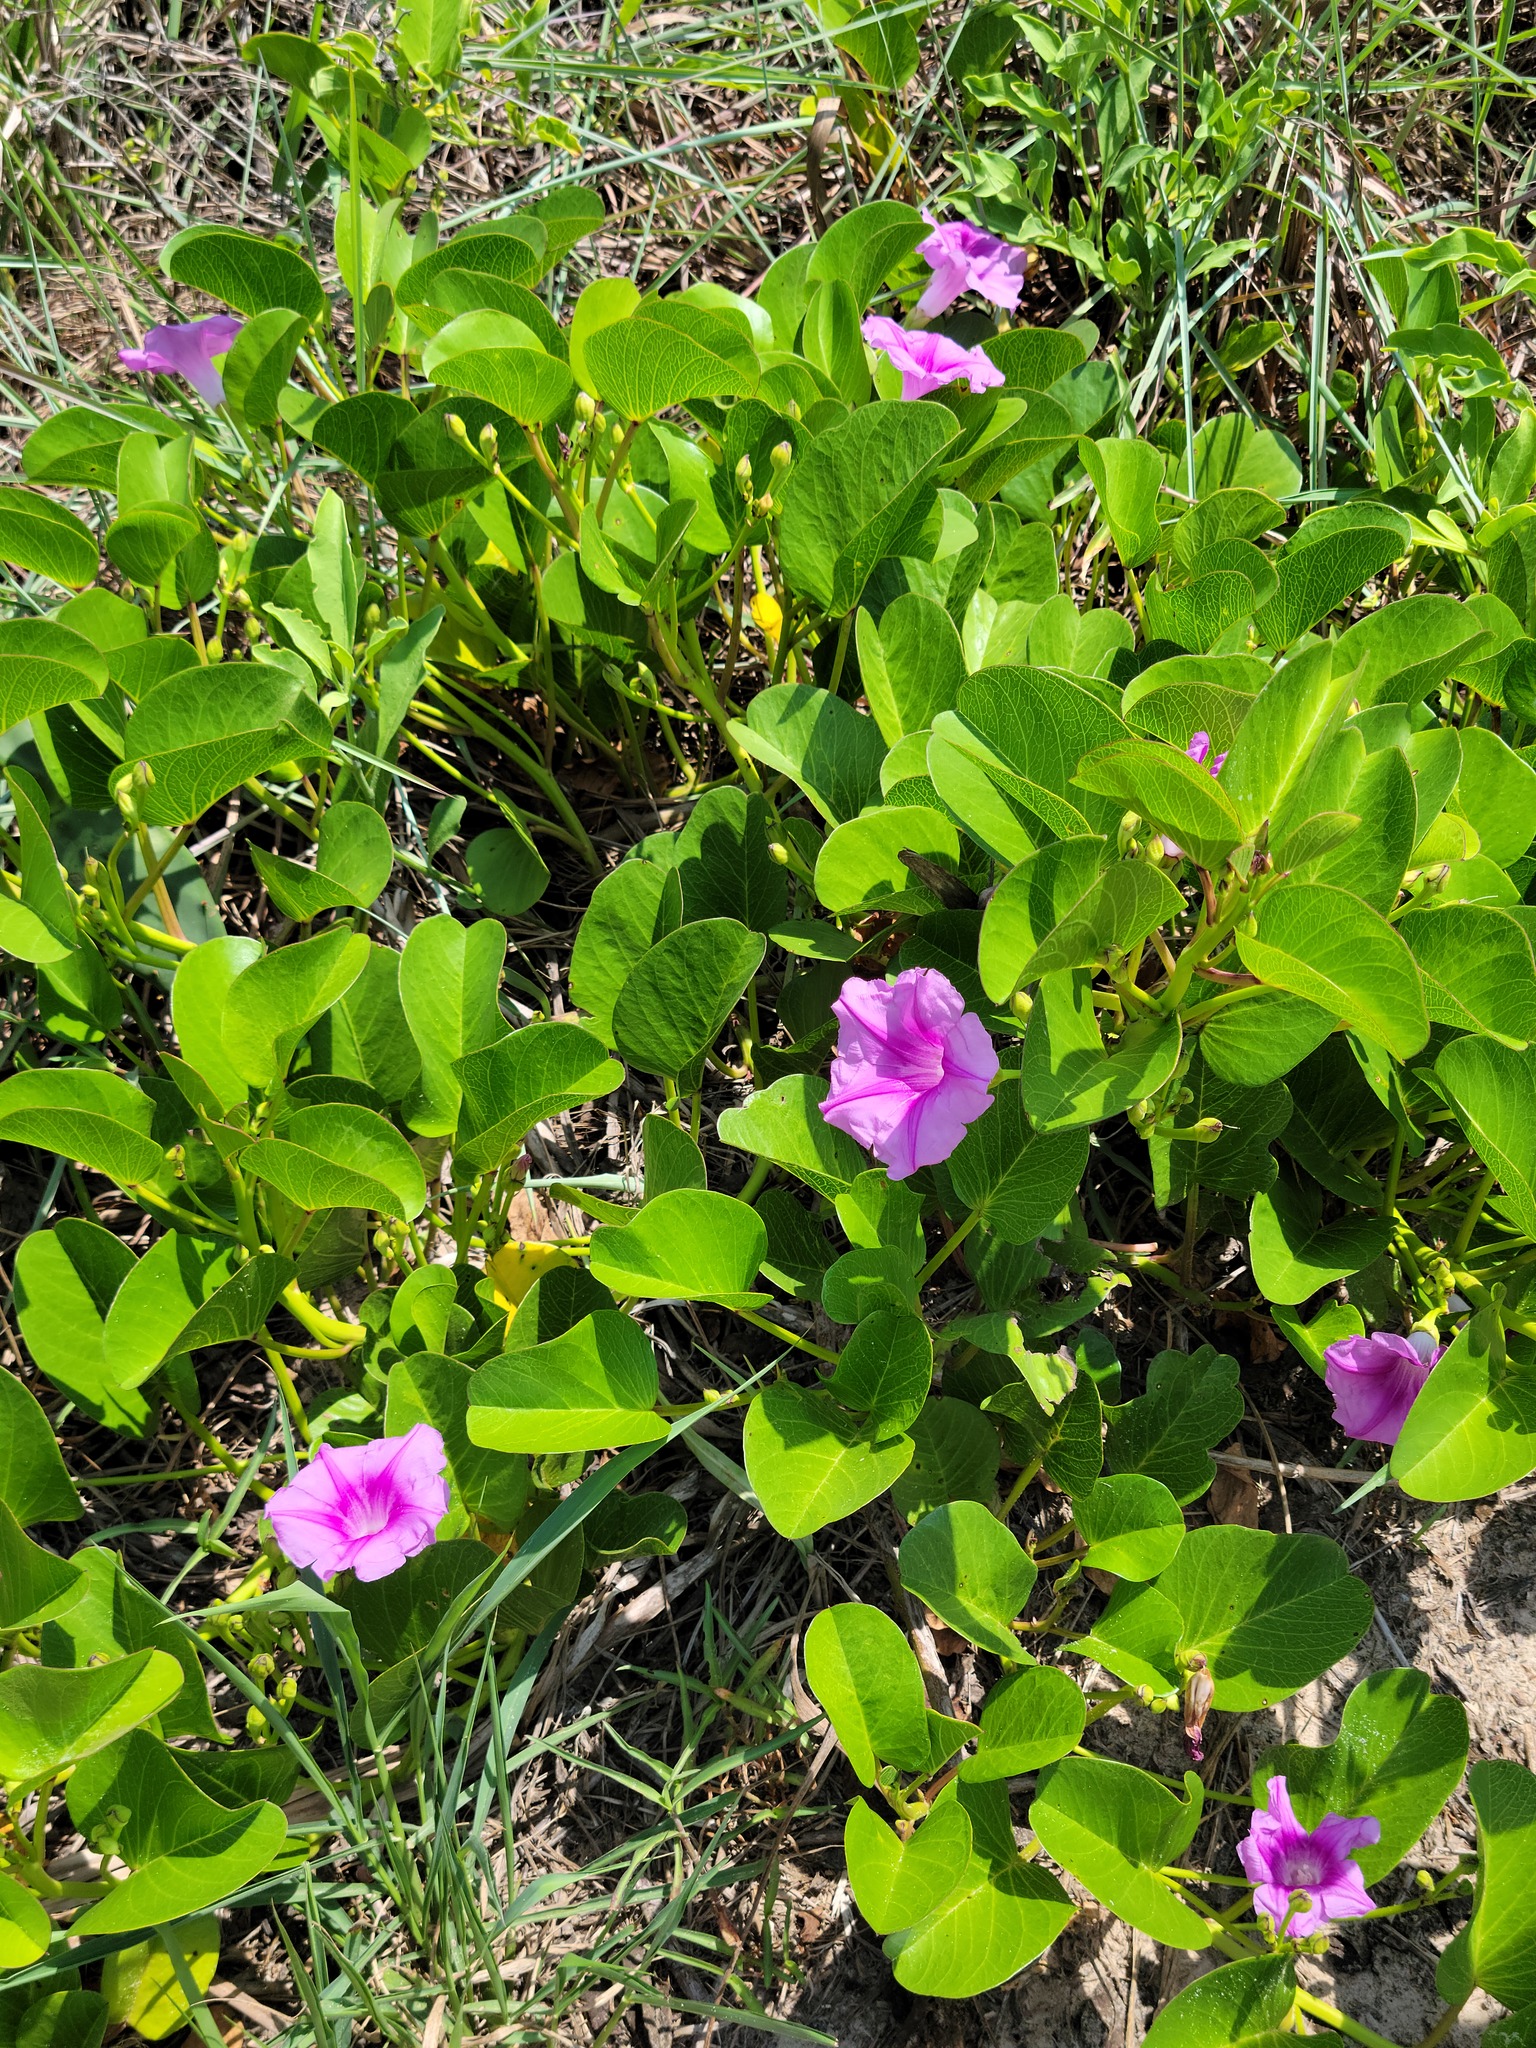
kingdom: Plantae
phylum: Tracheophyta
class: Magnoliopsida
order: Solanales
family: Convolvulaceae
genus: Ipomoea
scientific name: Ipomoea pes-caprae
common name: Beach morning glory
